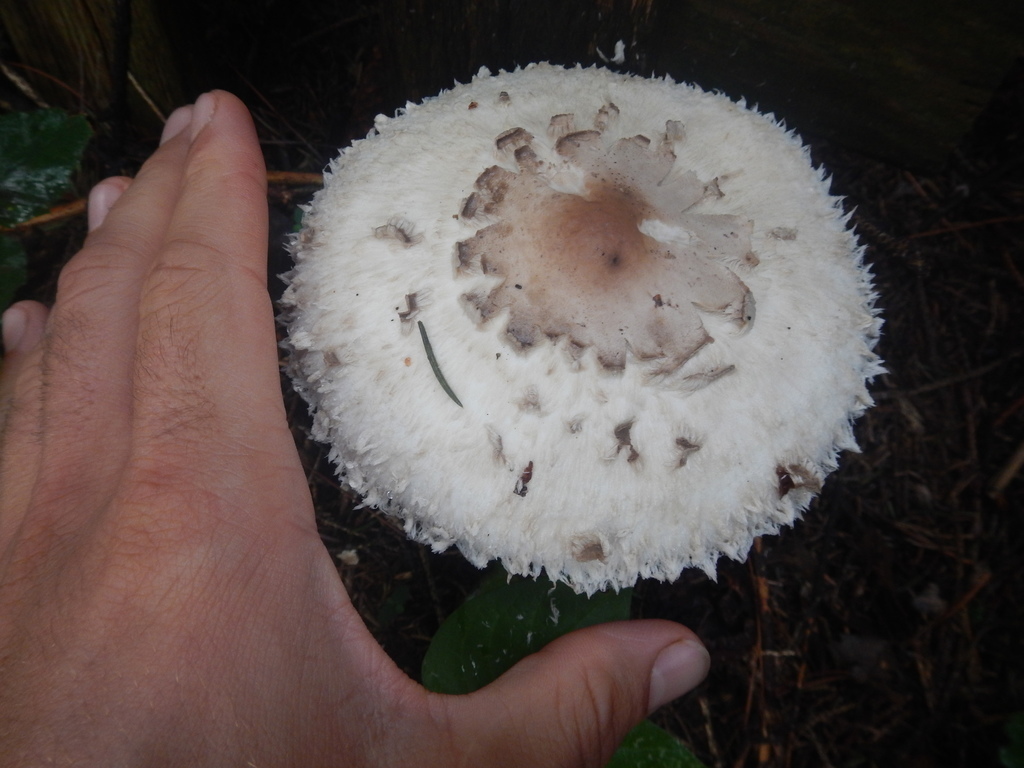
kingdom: Fungi
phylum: Basidiomycota
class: Agaricomycetes
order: Agaricales
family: Agaricaceae
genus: Chlorophyllum
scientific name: Chlorophyllum rhacodes
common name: Shaggy parasol
